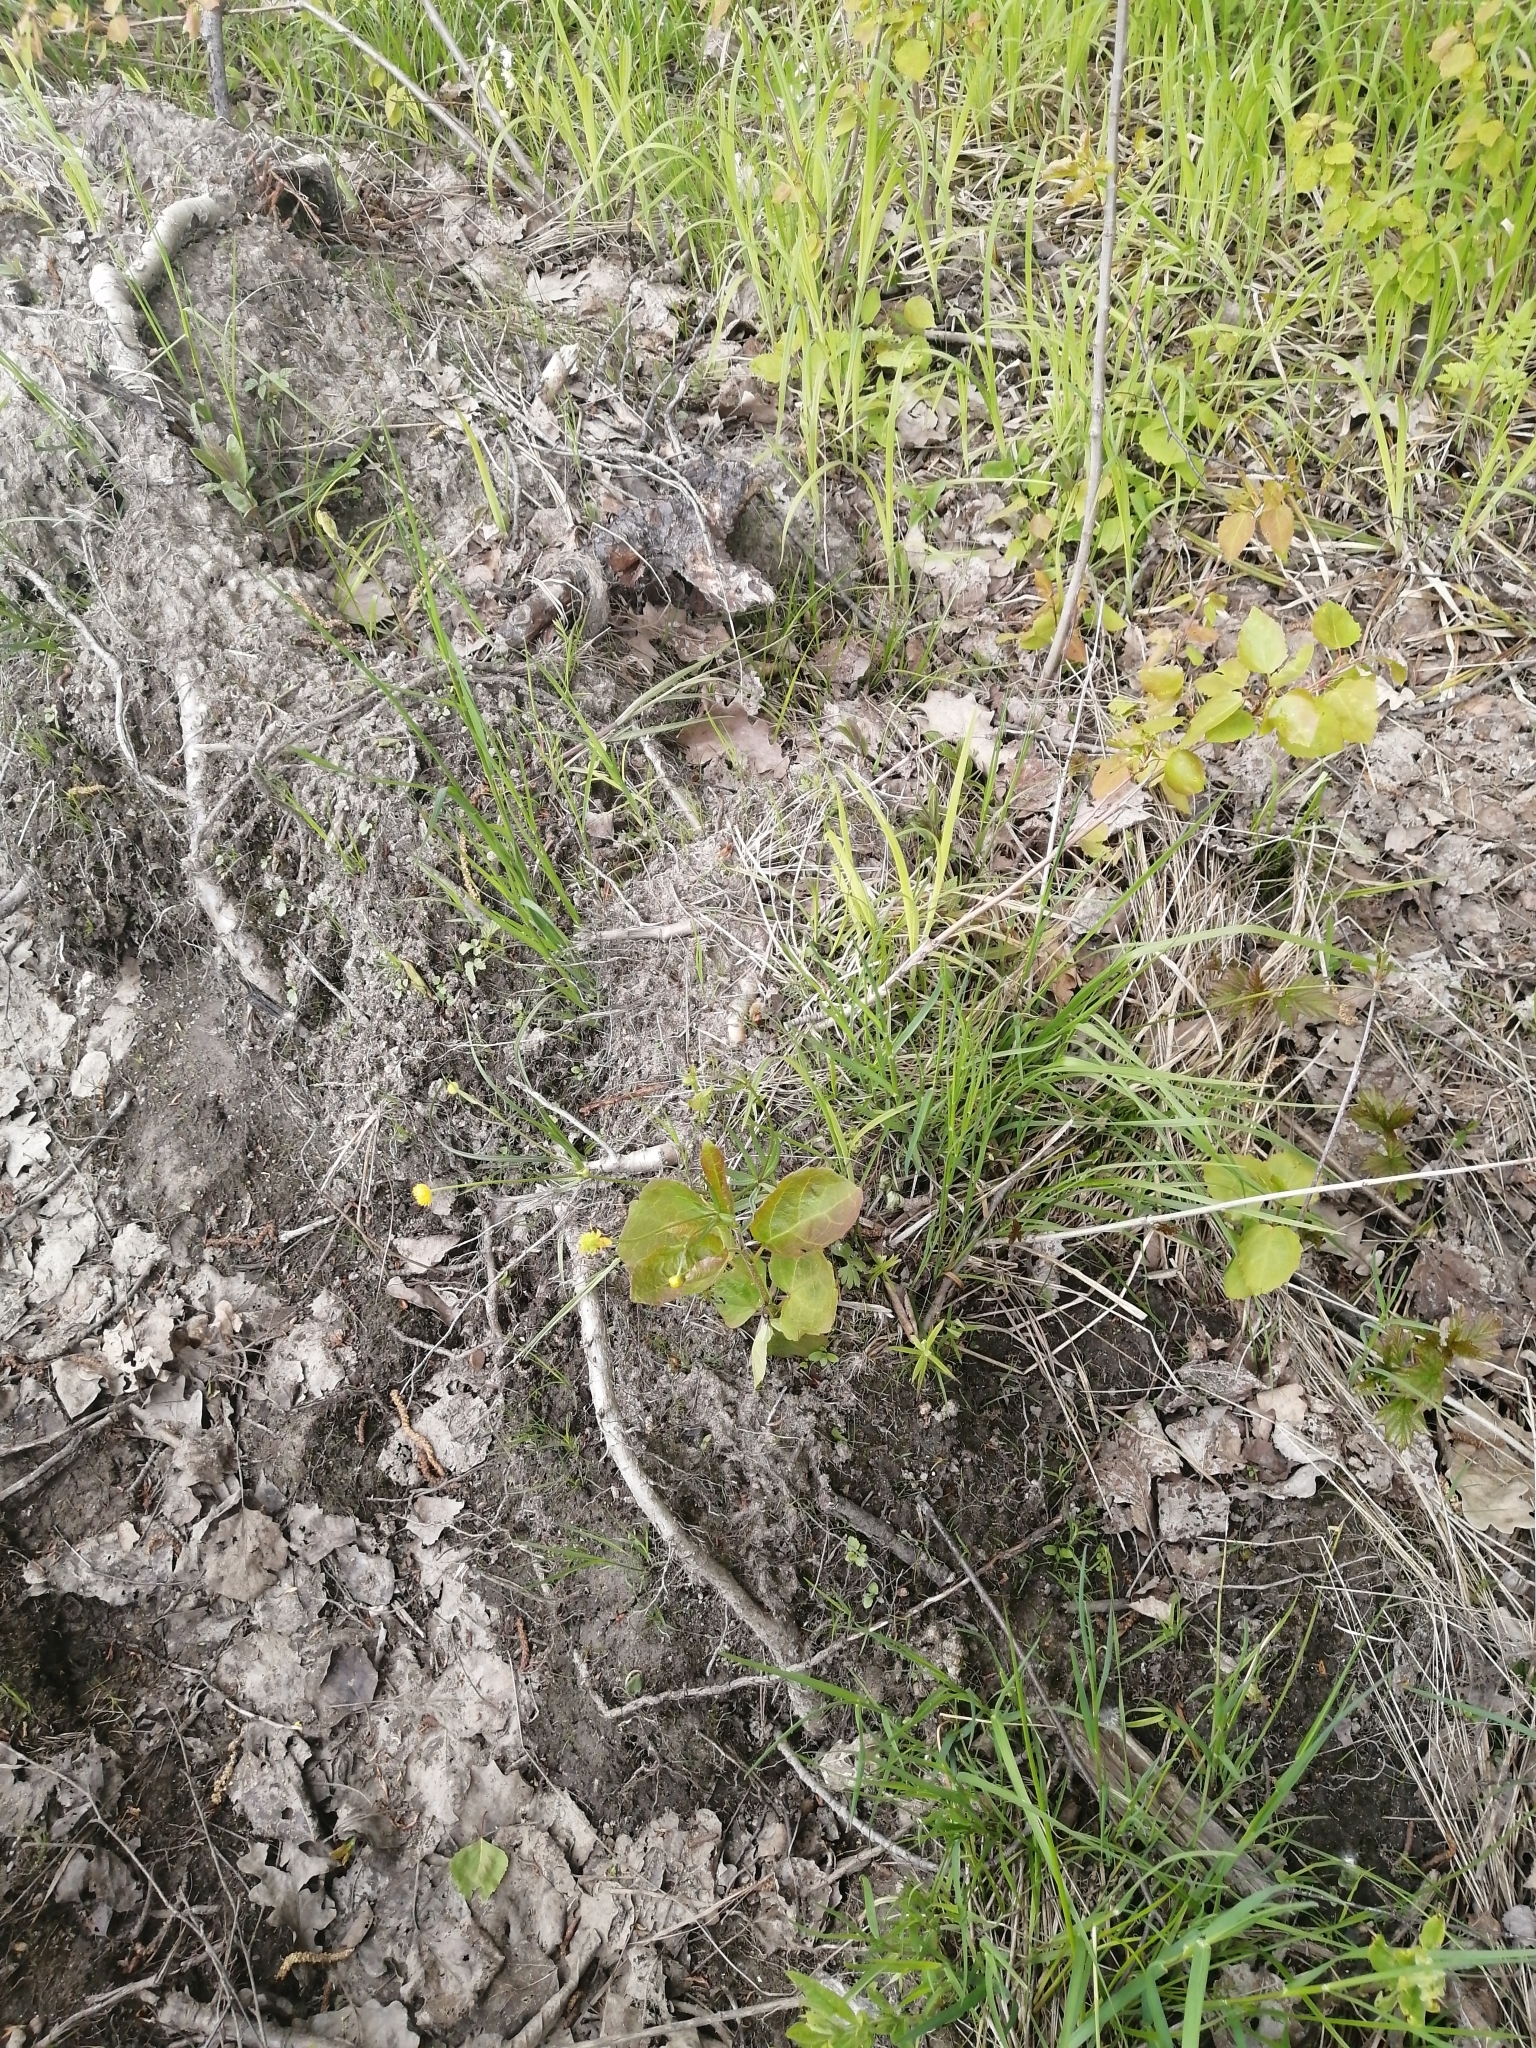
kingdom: Plantae
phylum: Tracheophyta
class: Magnoliopsida
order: Malpighiales
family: Salicaceae
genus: Populus
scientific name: Populus tremula
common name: European aspen
